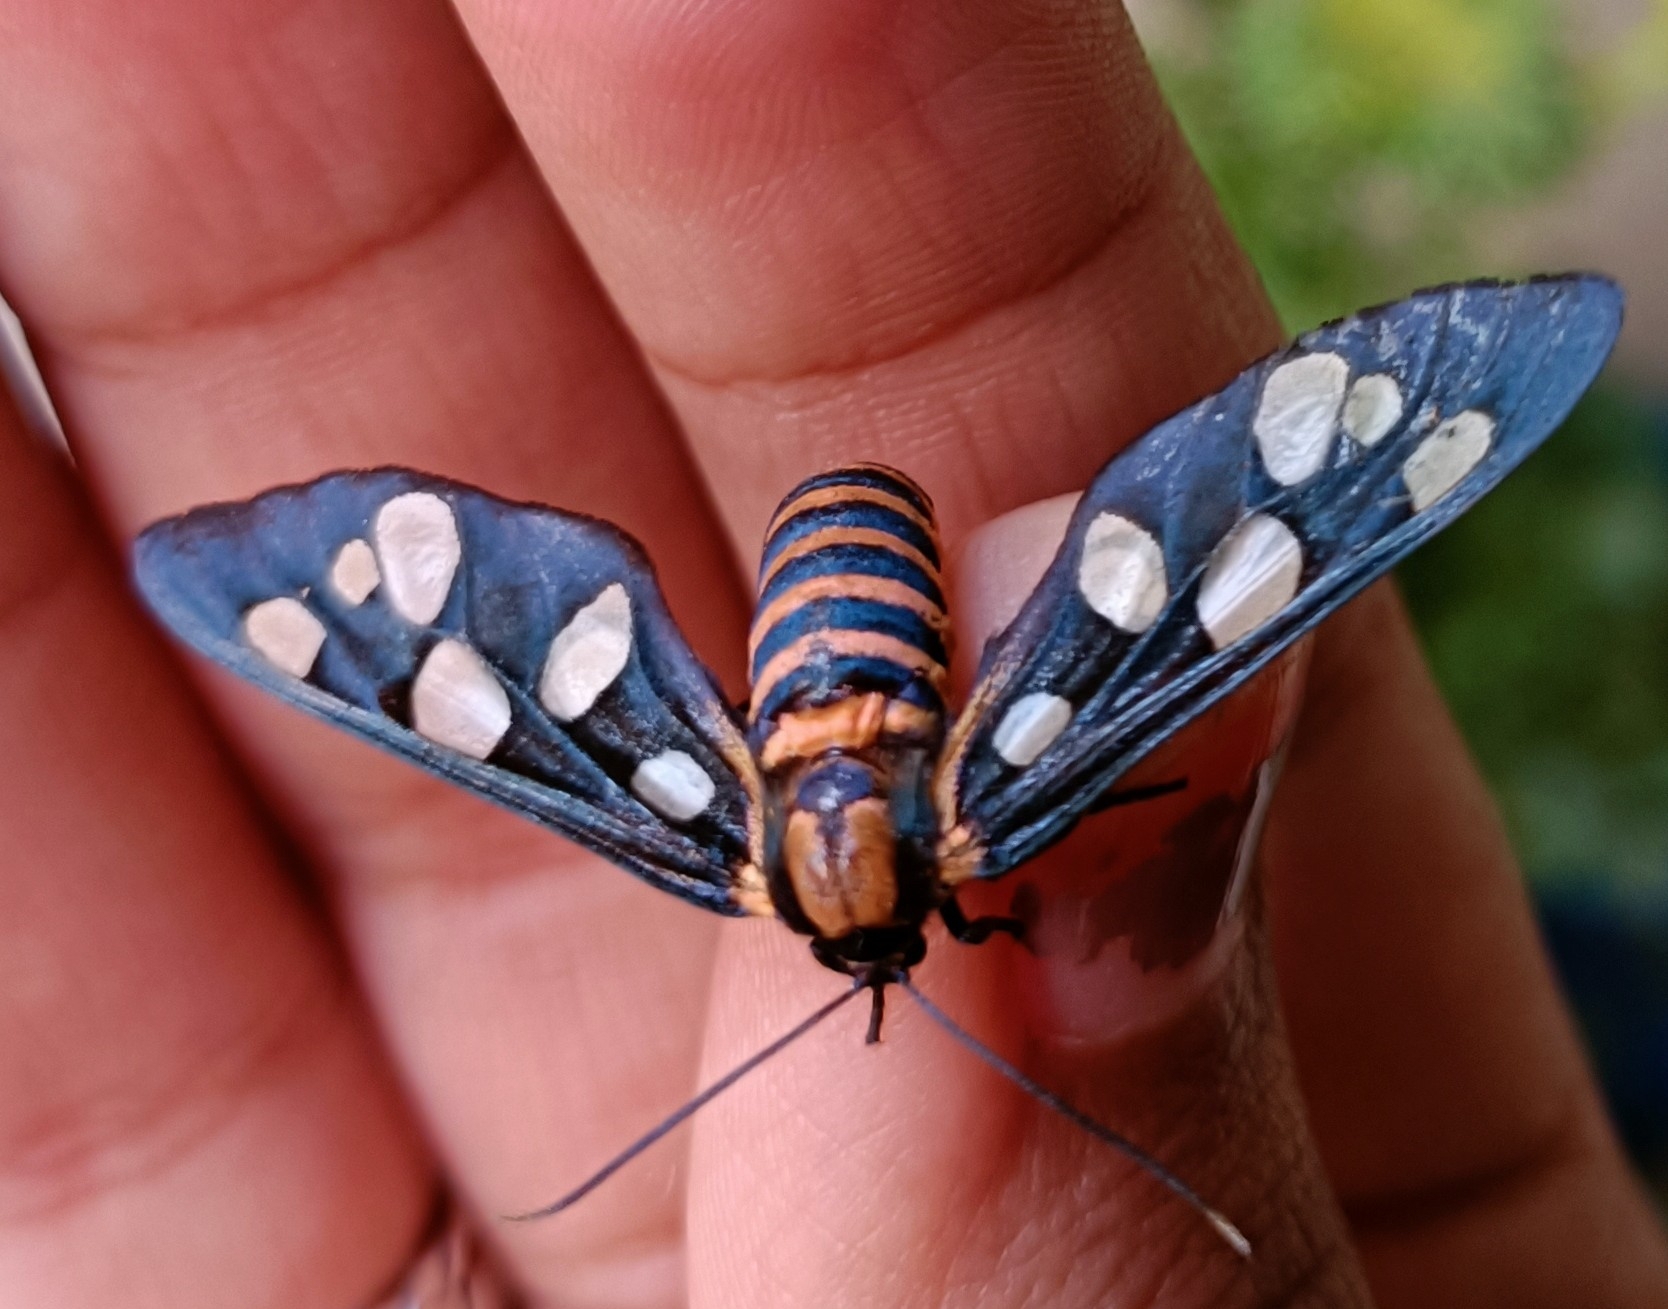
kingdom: Animalia
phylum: Arthropoda
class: Insecta
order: Lepidoptera
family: Erebidae
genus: Amata
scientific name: Amata passalis
